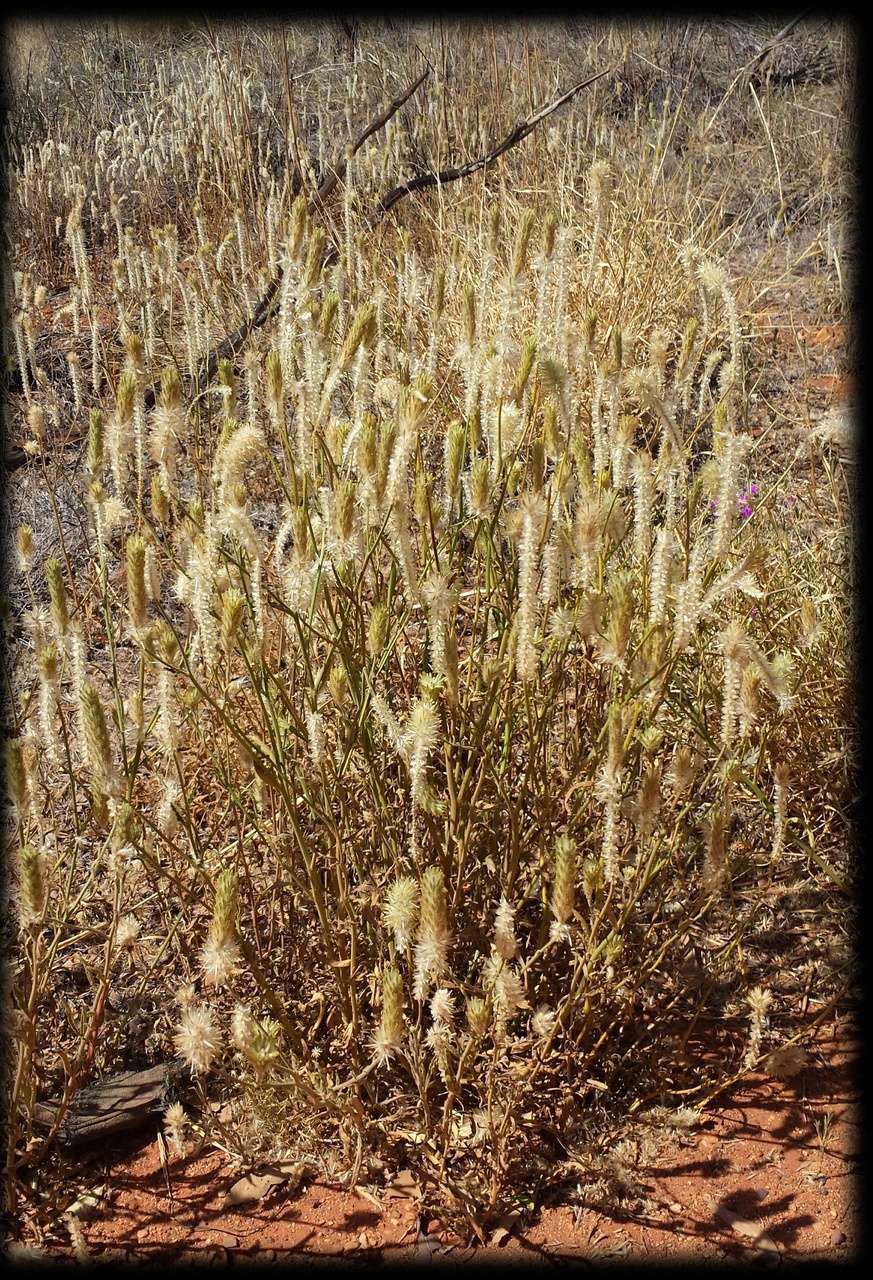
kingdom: Plantae
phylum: Tracheophyta
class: Magnoliopsida
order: Caryophyllales
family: Amaranthaceae
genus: Ptilotus
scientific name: Ptilotus polystachyus
